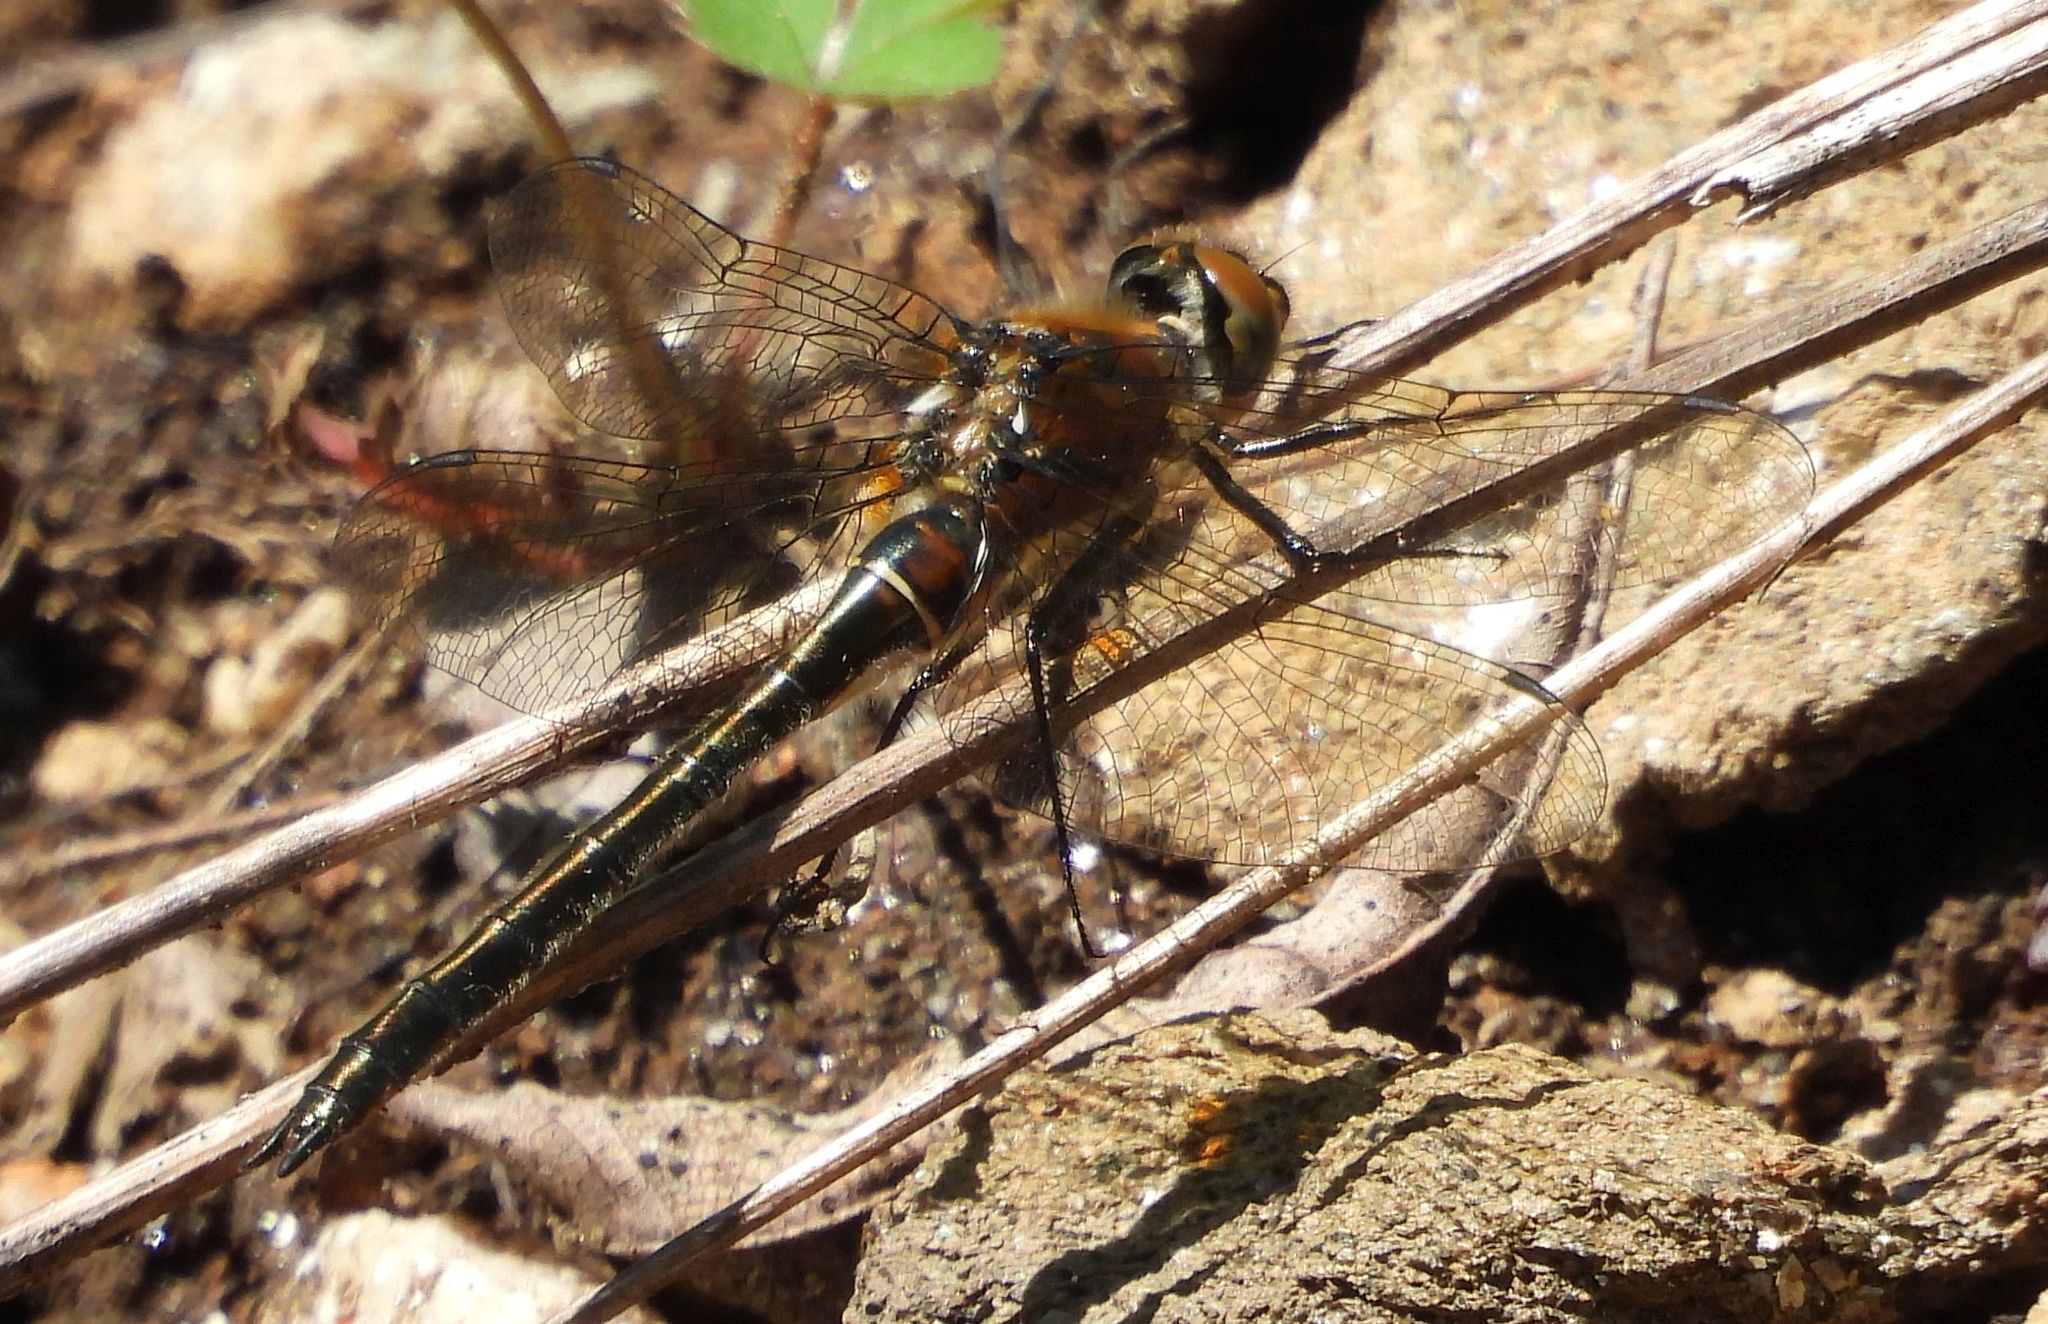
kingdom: Animalia
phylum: Arthropoda
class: Insecta
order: Odonata
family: Corduliidae
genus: Cordulia
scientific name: Cordulia shurtleffii
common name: American emerald
